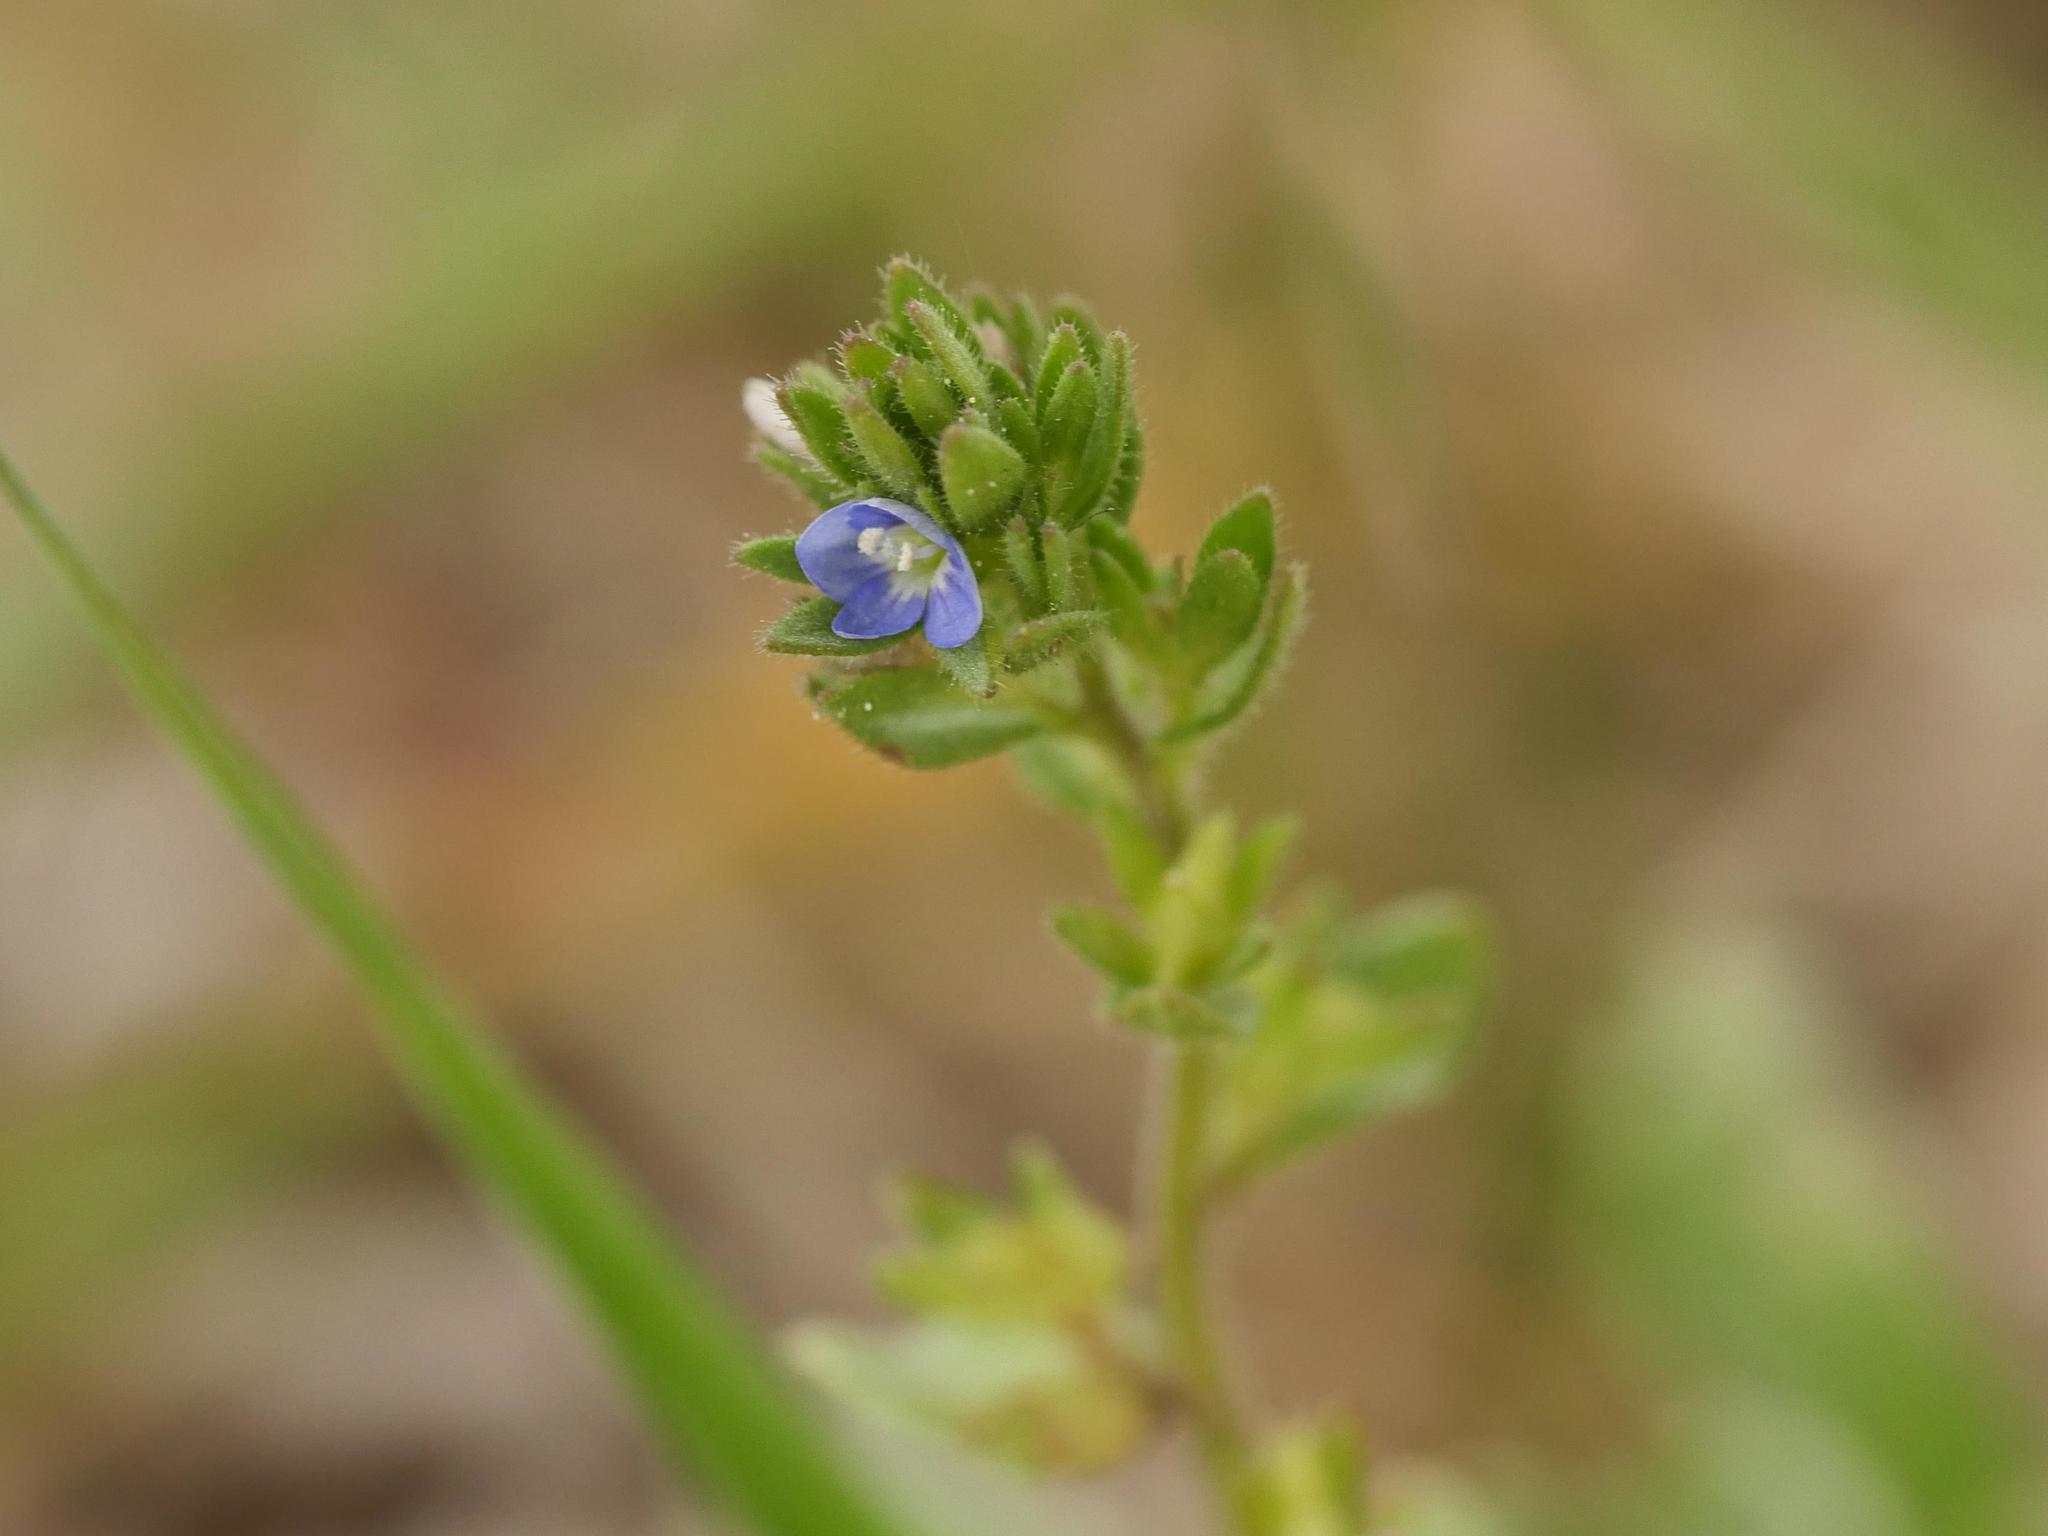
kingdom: Plantae
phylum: Tracheophyta
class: Magnoliopsida
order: Lamiales
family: Plantaginaceae
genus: Veronica
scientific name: Veronica arvensis
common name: Corn speedwell
